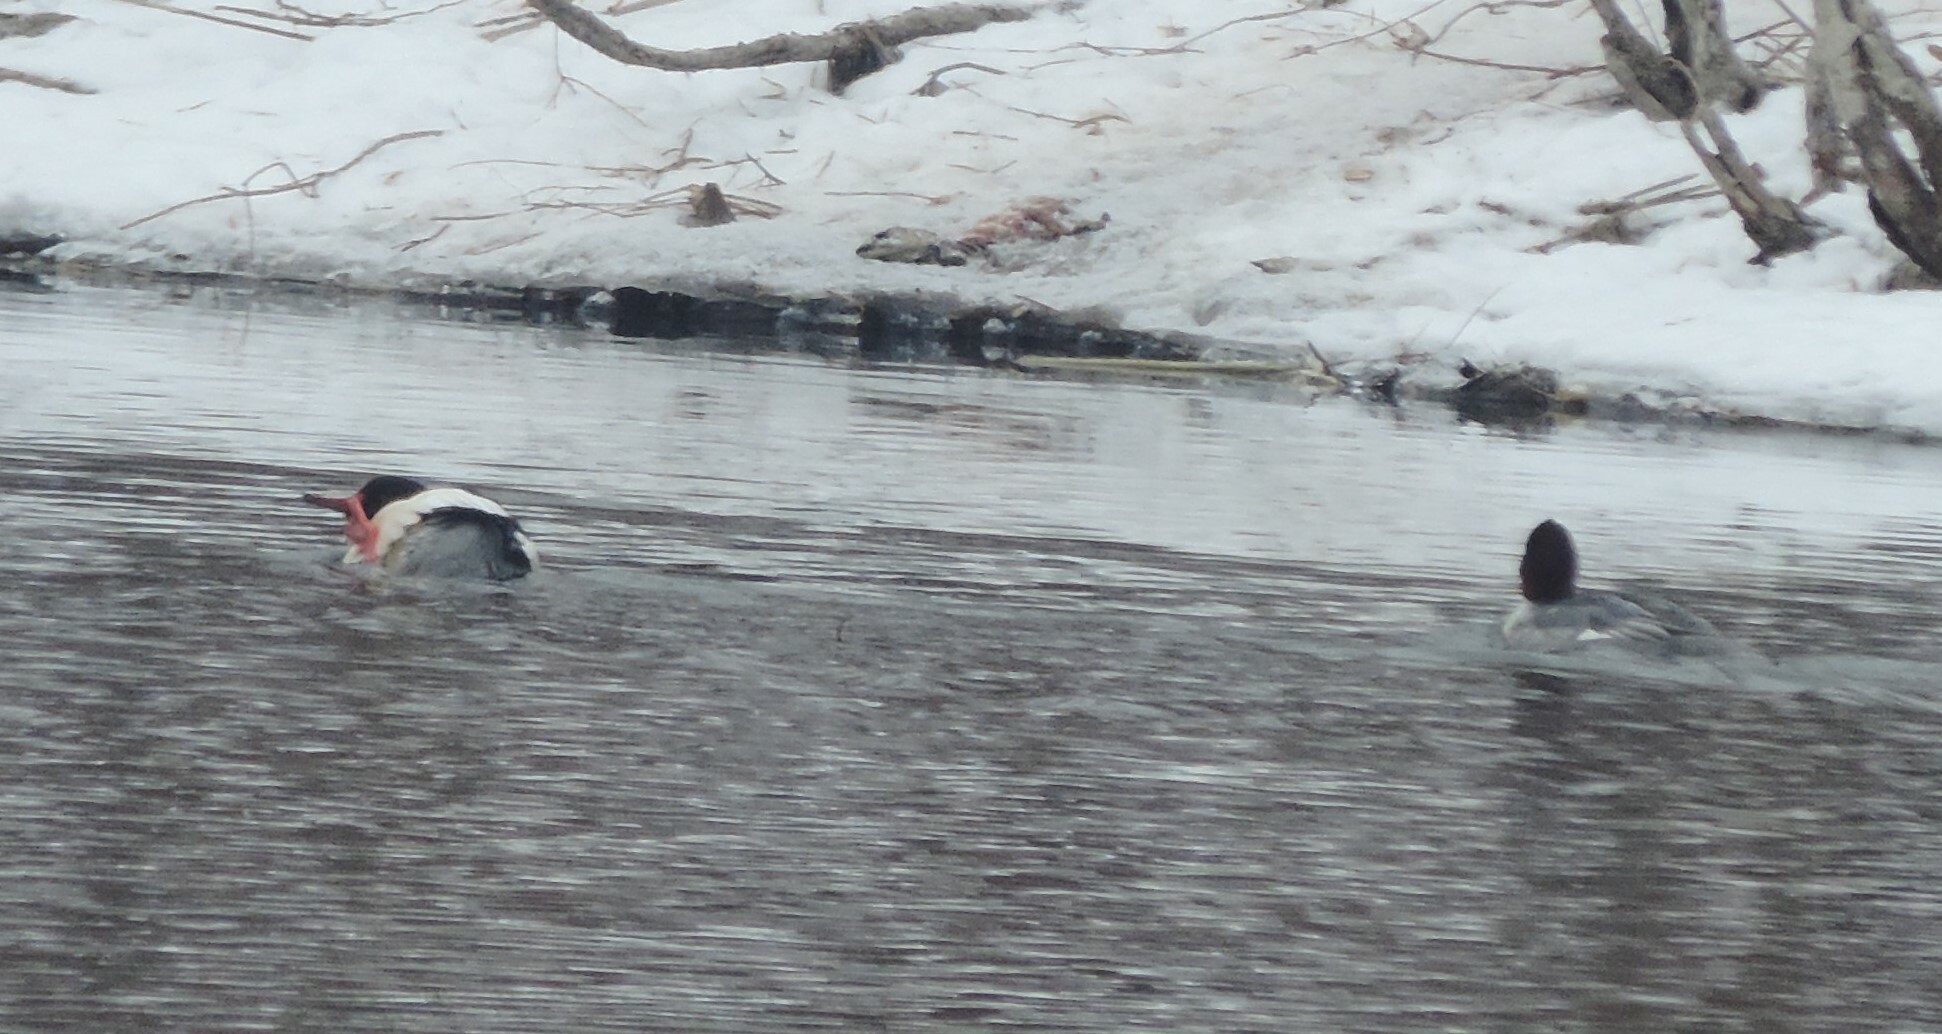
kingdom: Animalia
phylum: Chordata
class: Aves
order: Anseriformes
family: Anatidae
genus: Mergus
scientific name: Mergus merganser
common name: Common merganser
